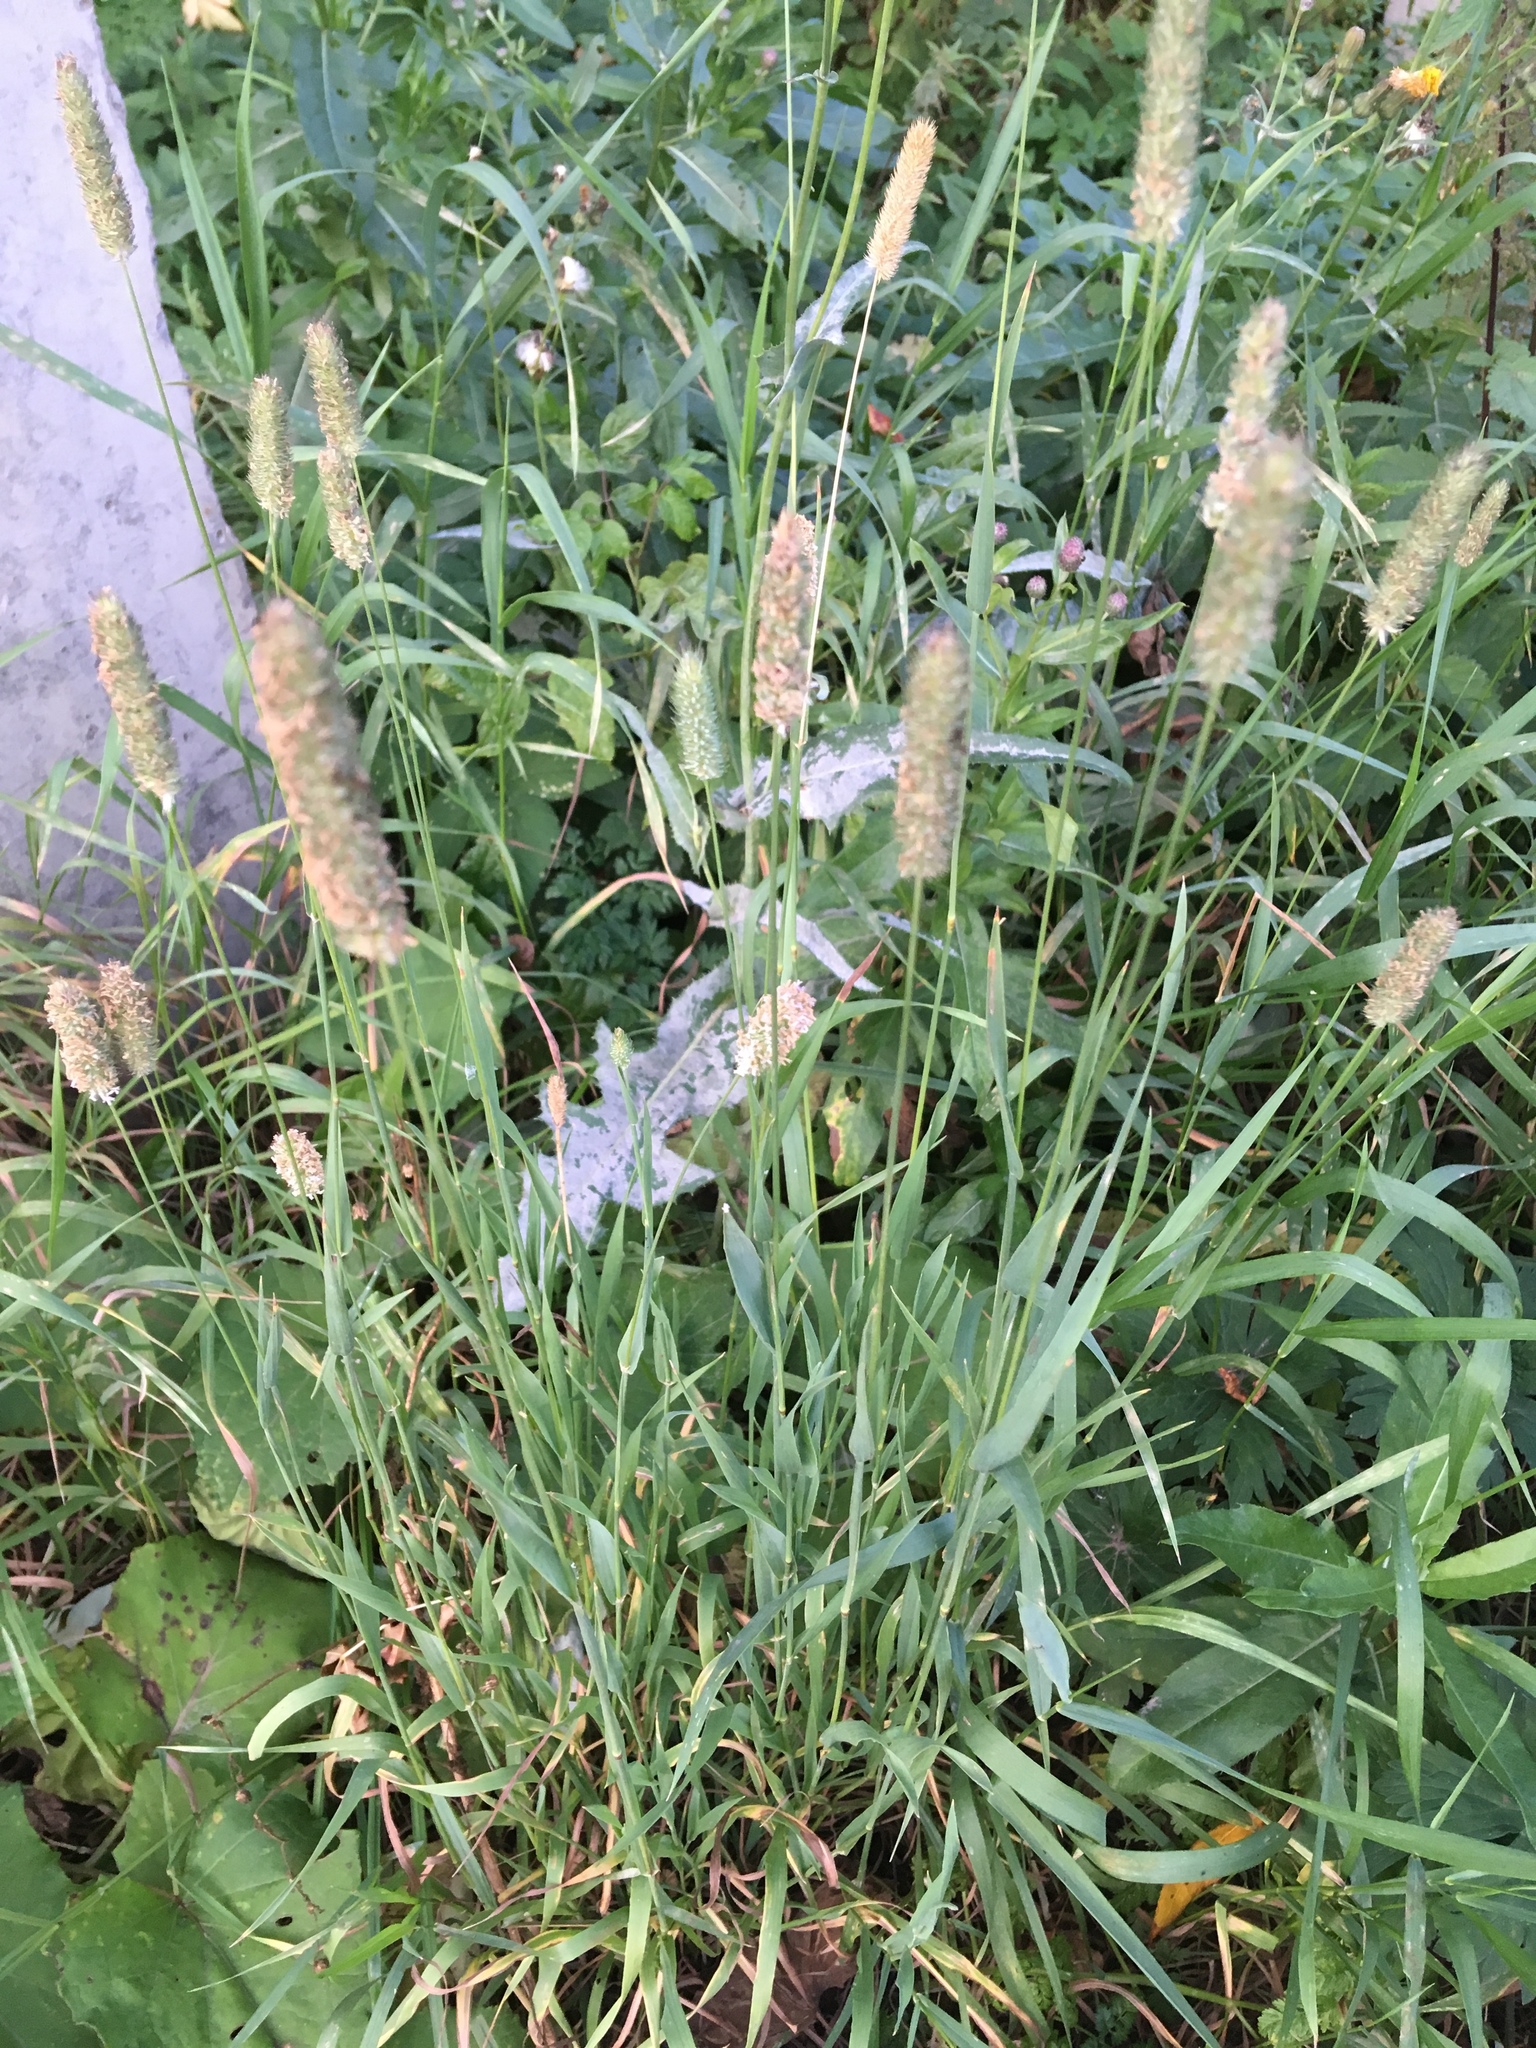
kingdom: Plantae
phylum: Tracheophyta
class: Liliopsida
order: Poales
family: Poaceae
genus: Phleum
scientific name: Phleum pratense
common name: Timothy grass
